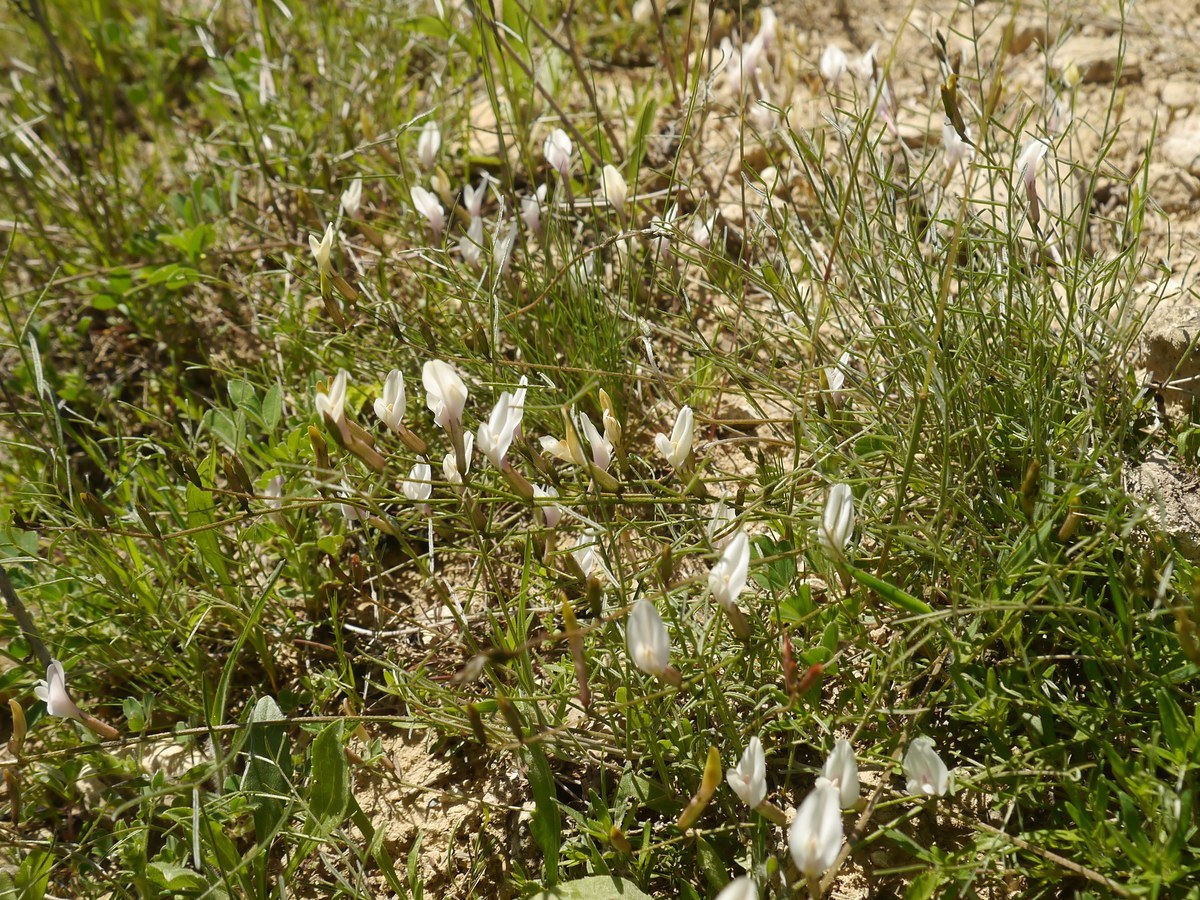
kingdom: Plantae
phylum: Tracheophyta
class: Magnoliopsida
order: Fabales
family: Fabaceae
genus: Astragalus
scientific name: Astragalus corniculatus
